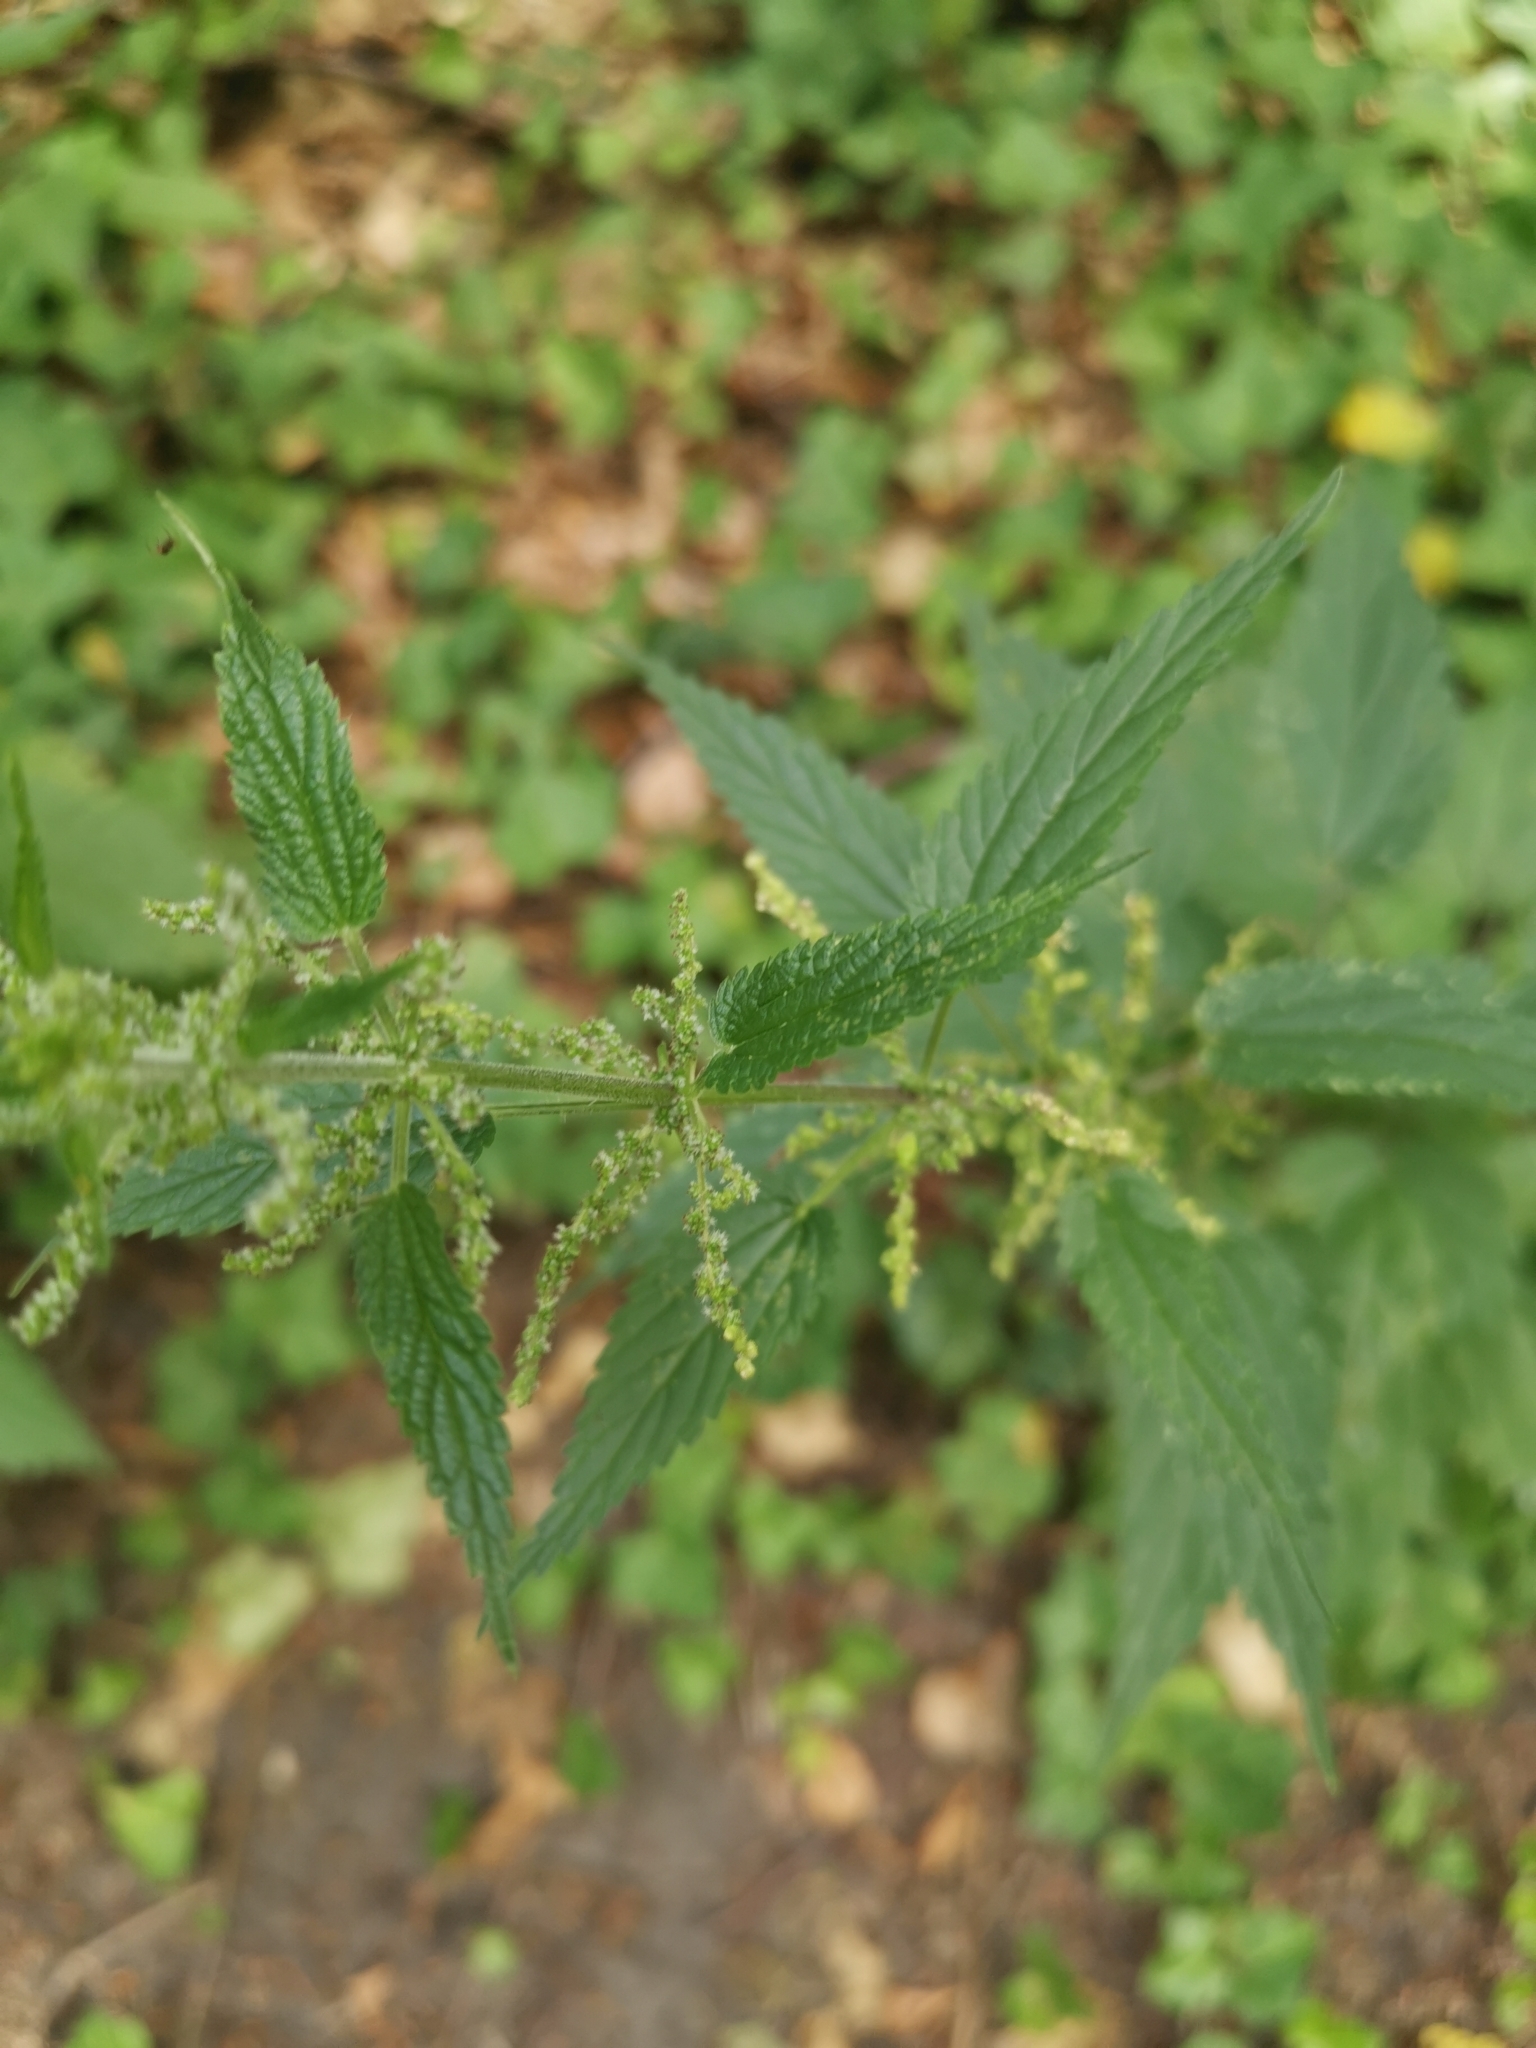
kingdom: Plantae
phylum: Tracheophyta
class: Magnoliopsida
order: Rosales
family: Urticaceae
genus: Urtica
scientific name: Urtica dioica
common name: Common nettle
